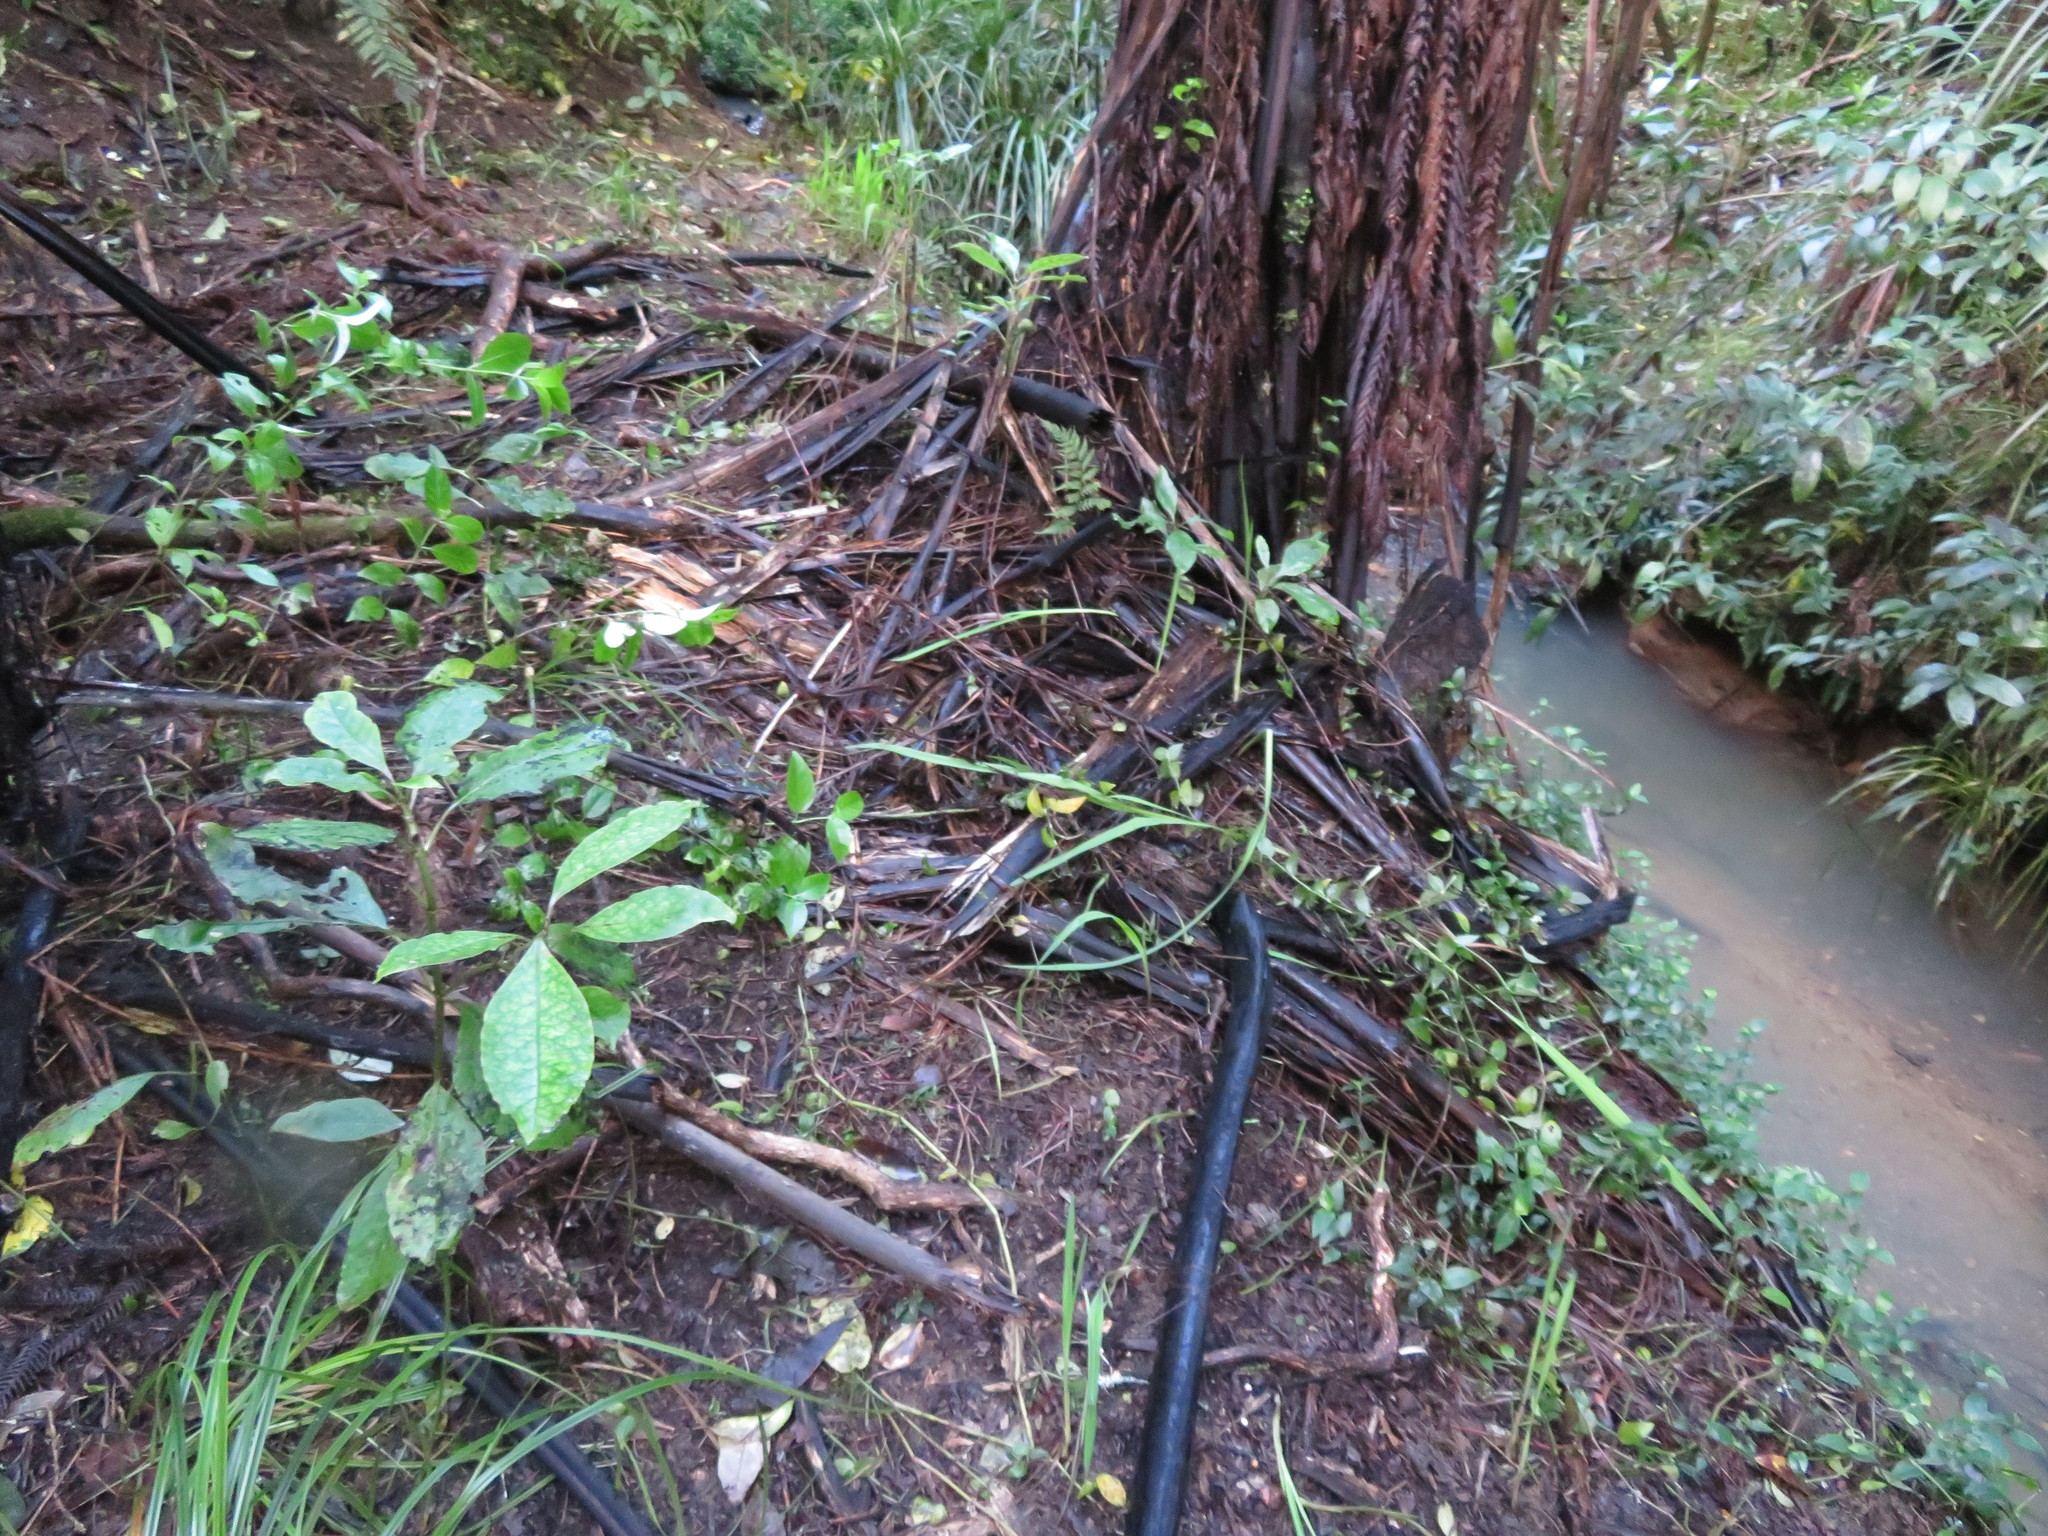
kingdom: Plantae
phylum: Tracheophyta
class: Magnoliopsida
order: Gentianales
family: Rubiaceae
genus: Coprosma
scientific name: Coprosma autumnalis
